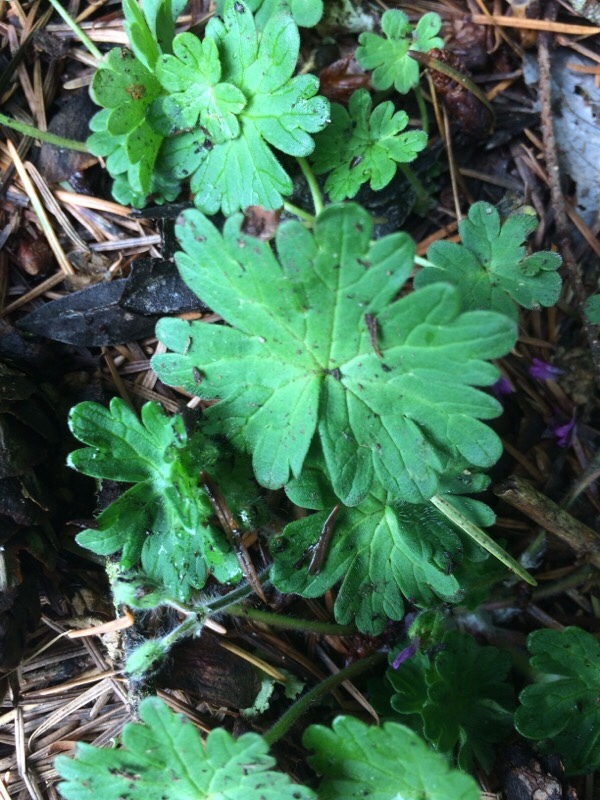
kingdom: Plantae
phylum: Tracheophyta
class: Magnoliopsida
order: Geraniales
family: Geraniaceae
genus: Geranium
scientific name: Geranium molle
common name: Dove's-foot crane's-bill
